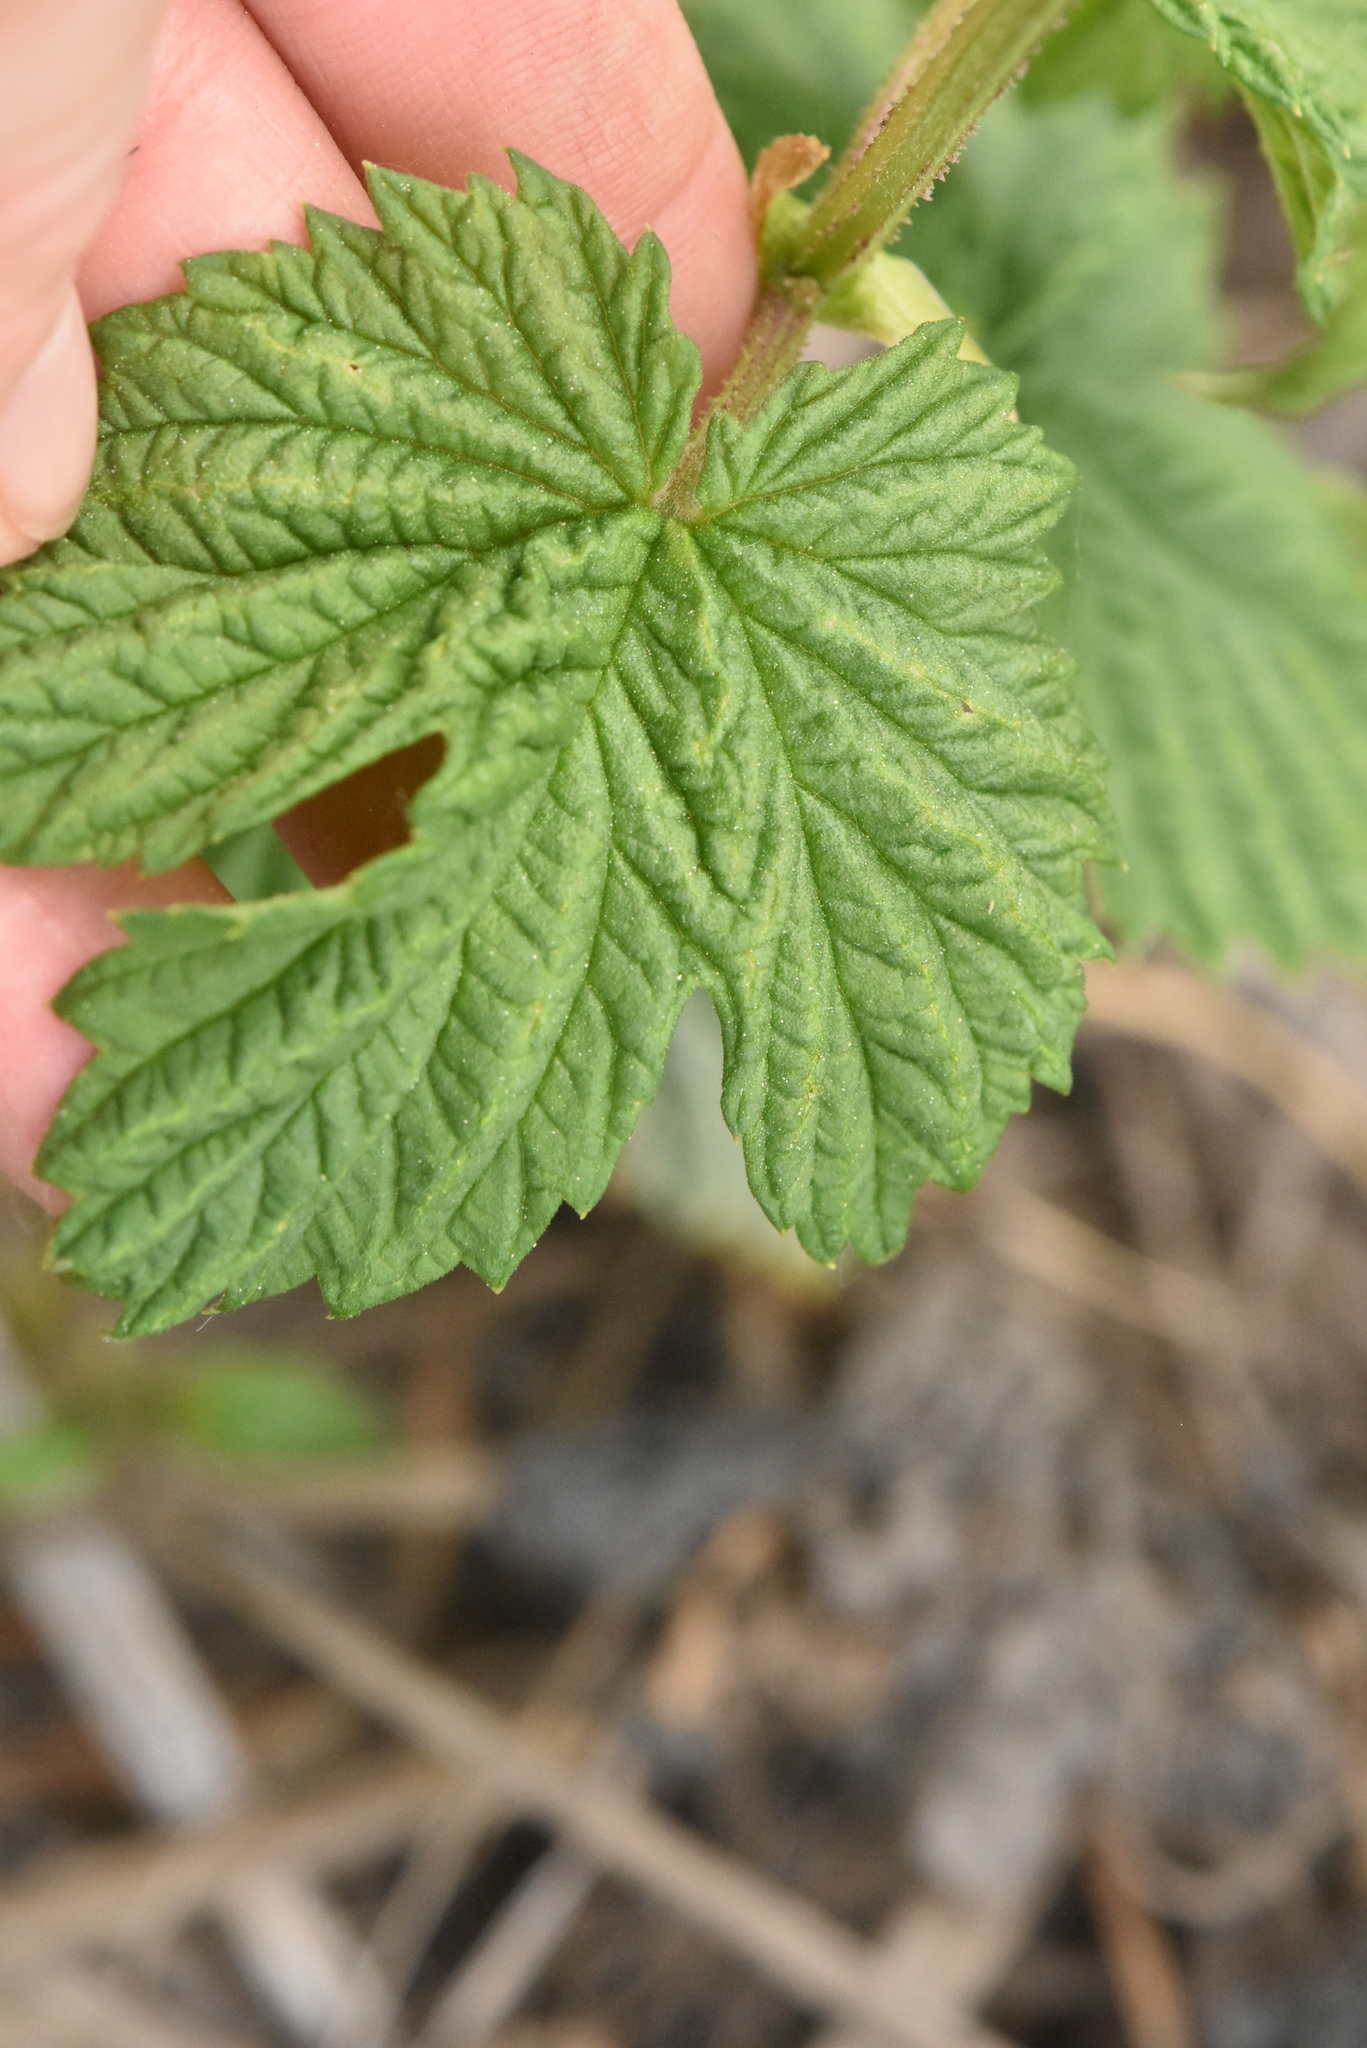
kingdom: Plantae
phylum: Tracheophyta
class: Magnoliopsida
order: Rosales
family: Cannabaceae
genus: Humulus
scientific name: Humulus lupulus
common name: Hop
